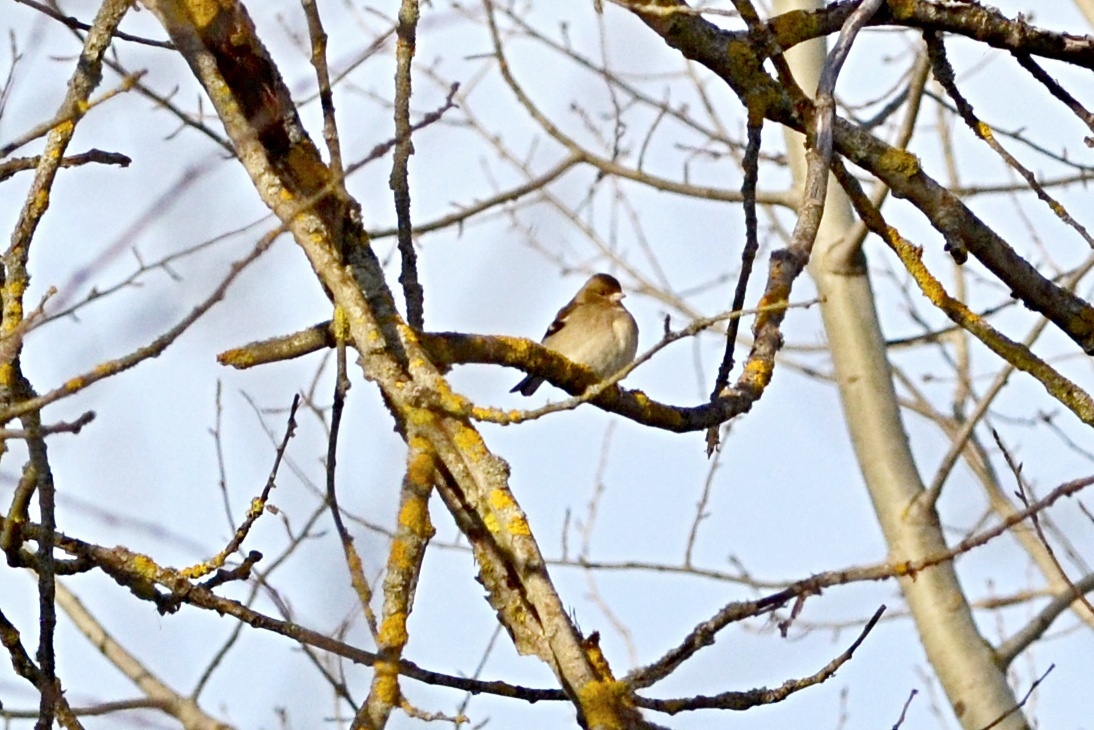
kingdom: Animalia
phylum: Chordata
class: Aves
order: Passeriformes
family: Fringillidae
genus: Fringilla
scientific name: Fringilla coelebs
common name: Common chaffinch
